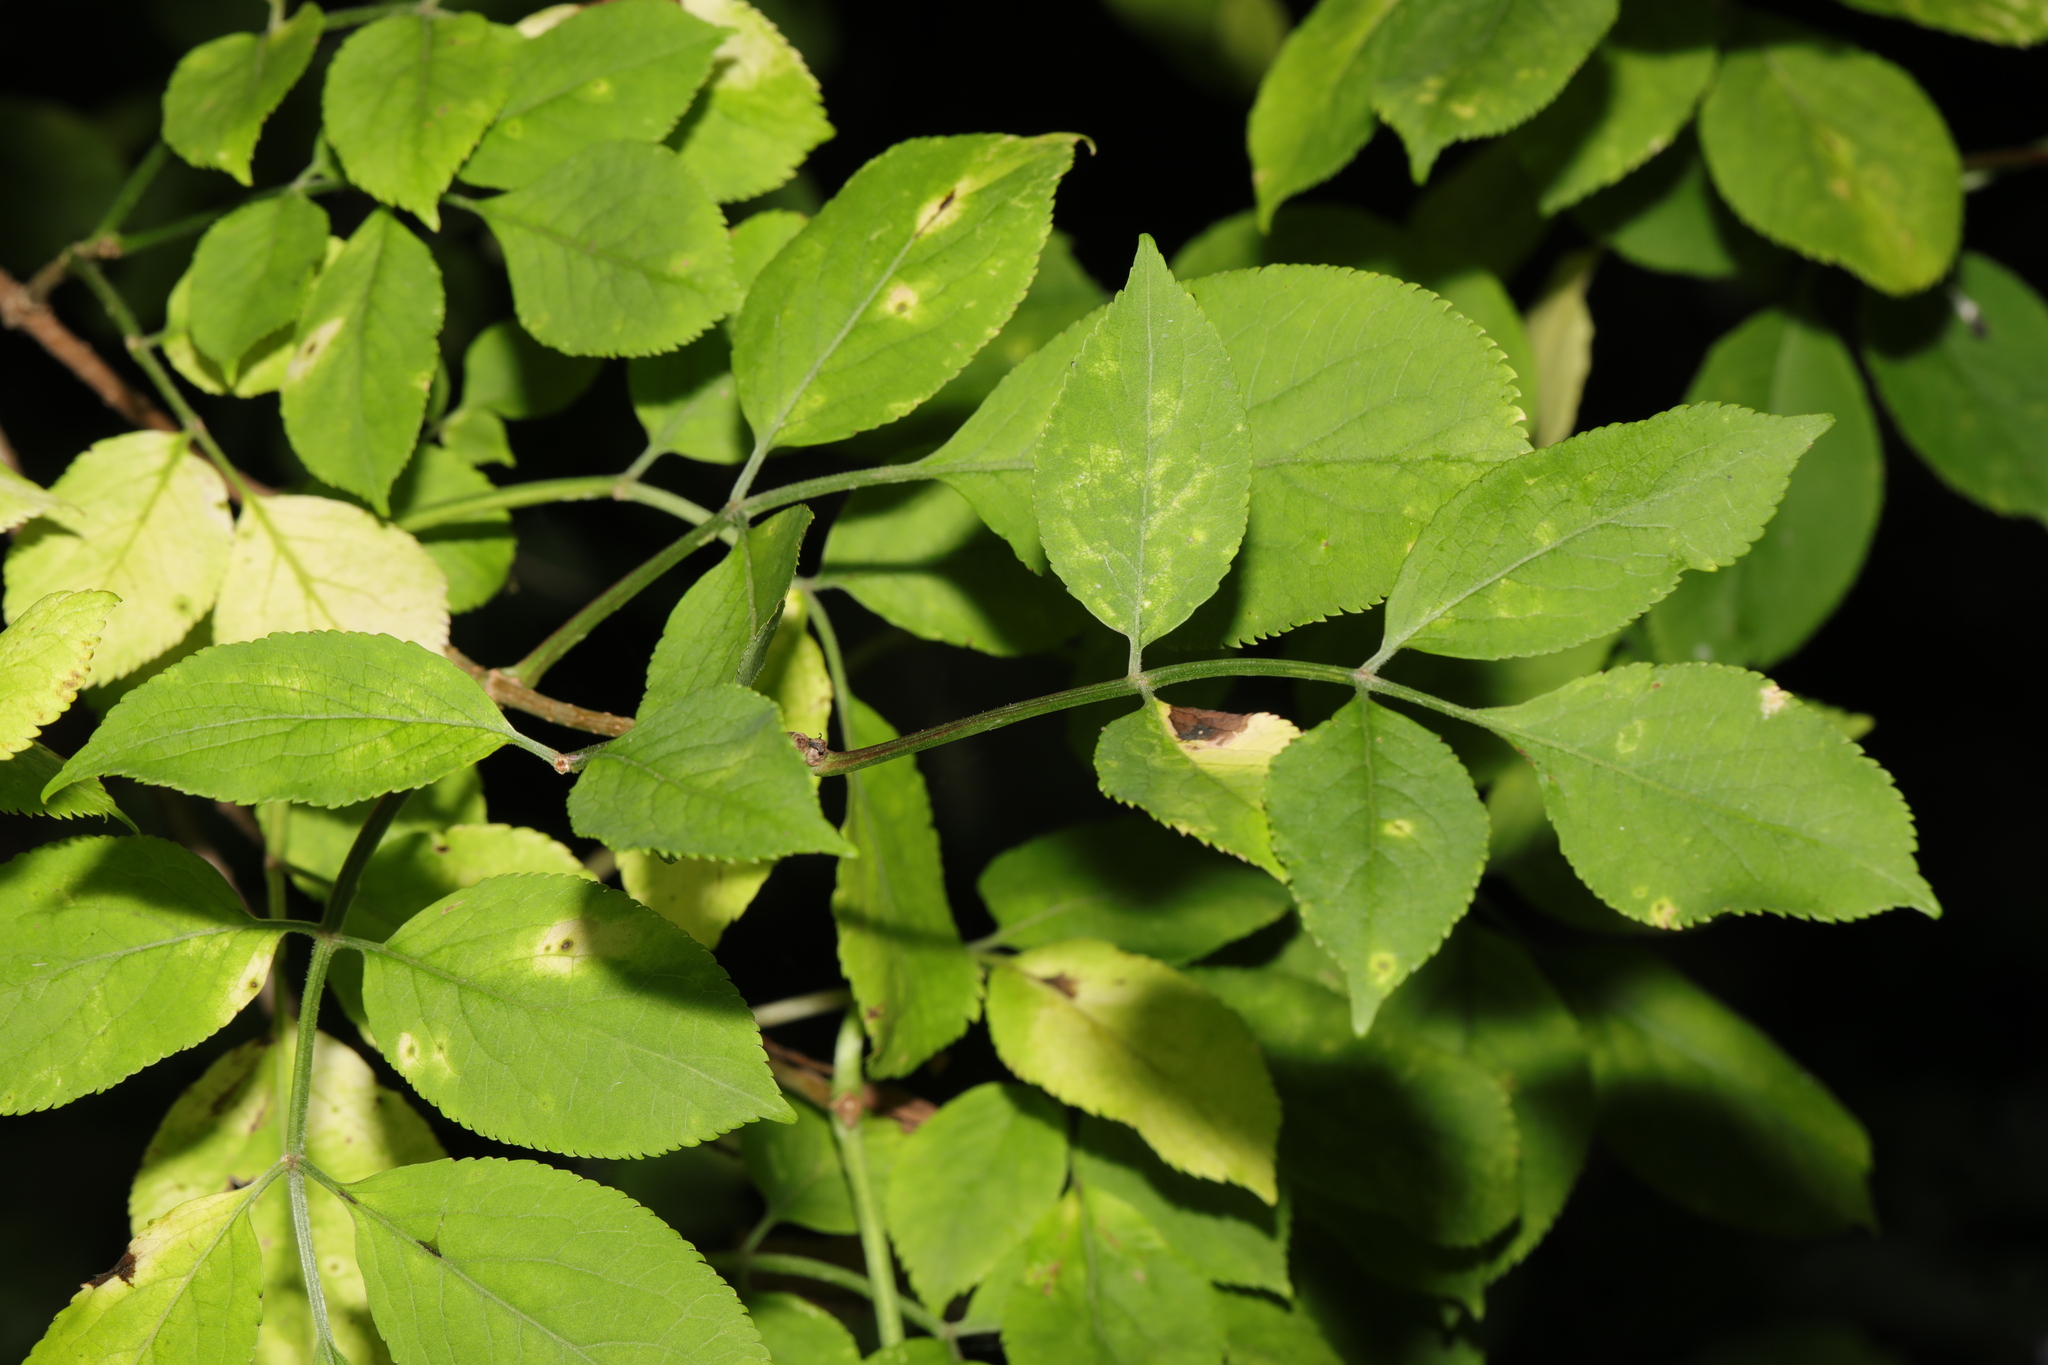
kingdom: Plantae
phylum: Tracheophyta
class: Magnoliopsida
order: Dipsacales
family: Viburnaceae
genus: Sambucus
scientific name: Sambucus nigra
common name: Elder
